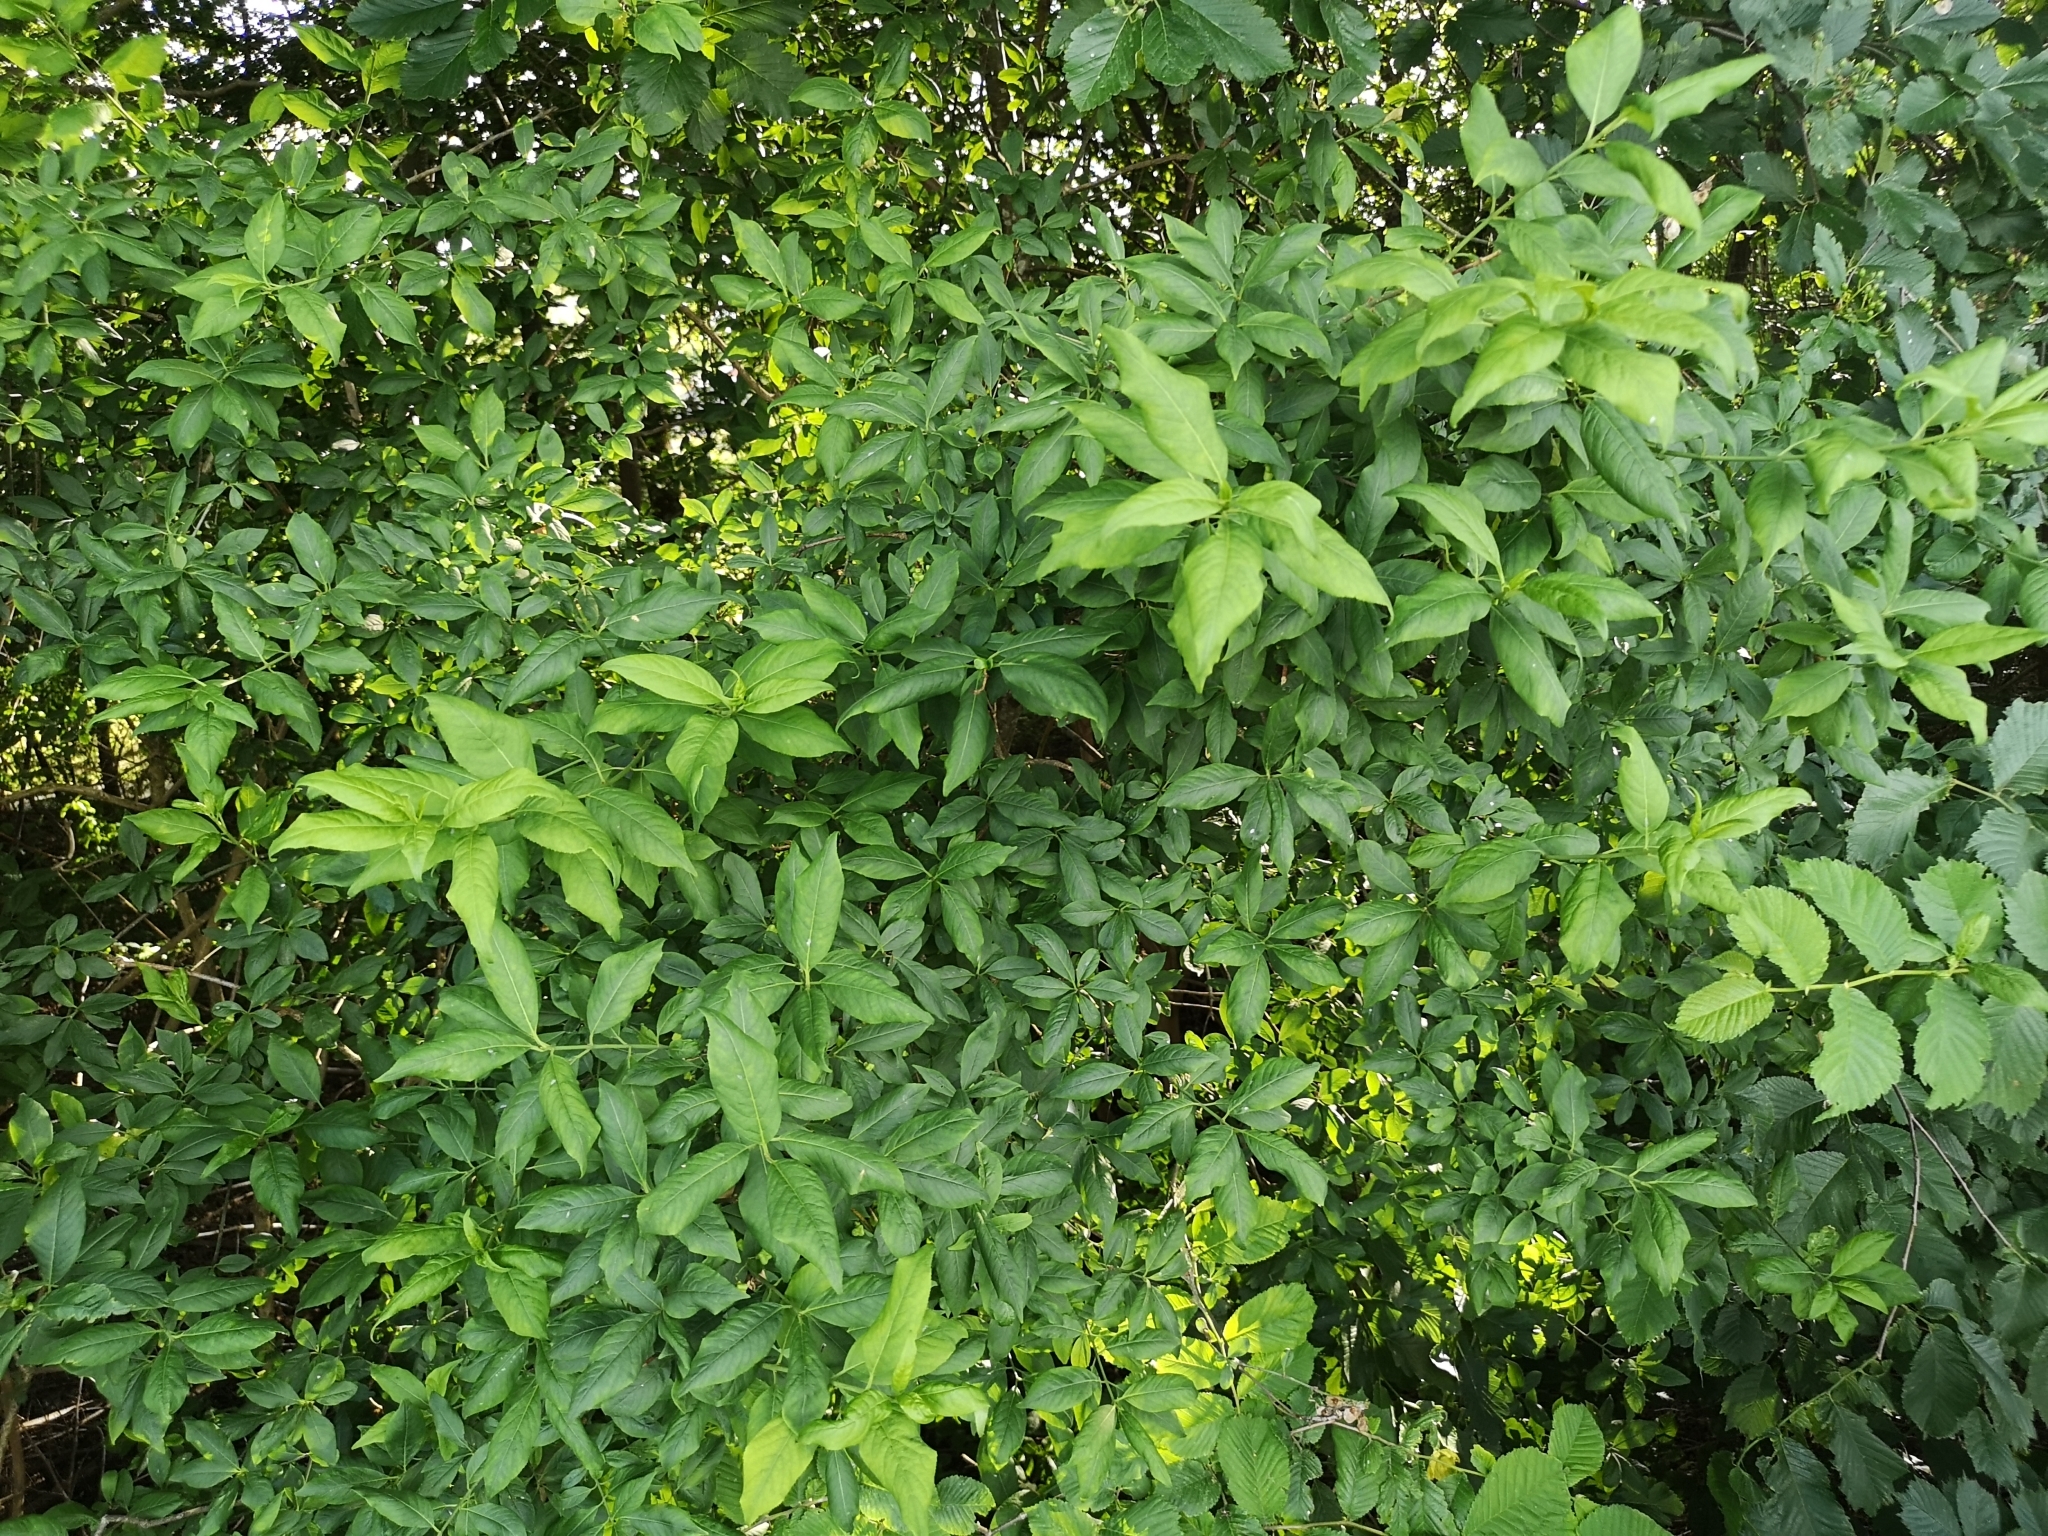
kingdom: Plantae
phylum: Tracheophyta
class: Magnoliopsida
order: Celastrales
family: Celastraceae
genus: Euonymus
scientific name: Euonymus europaeus
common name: Spindle
